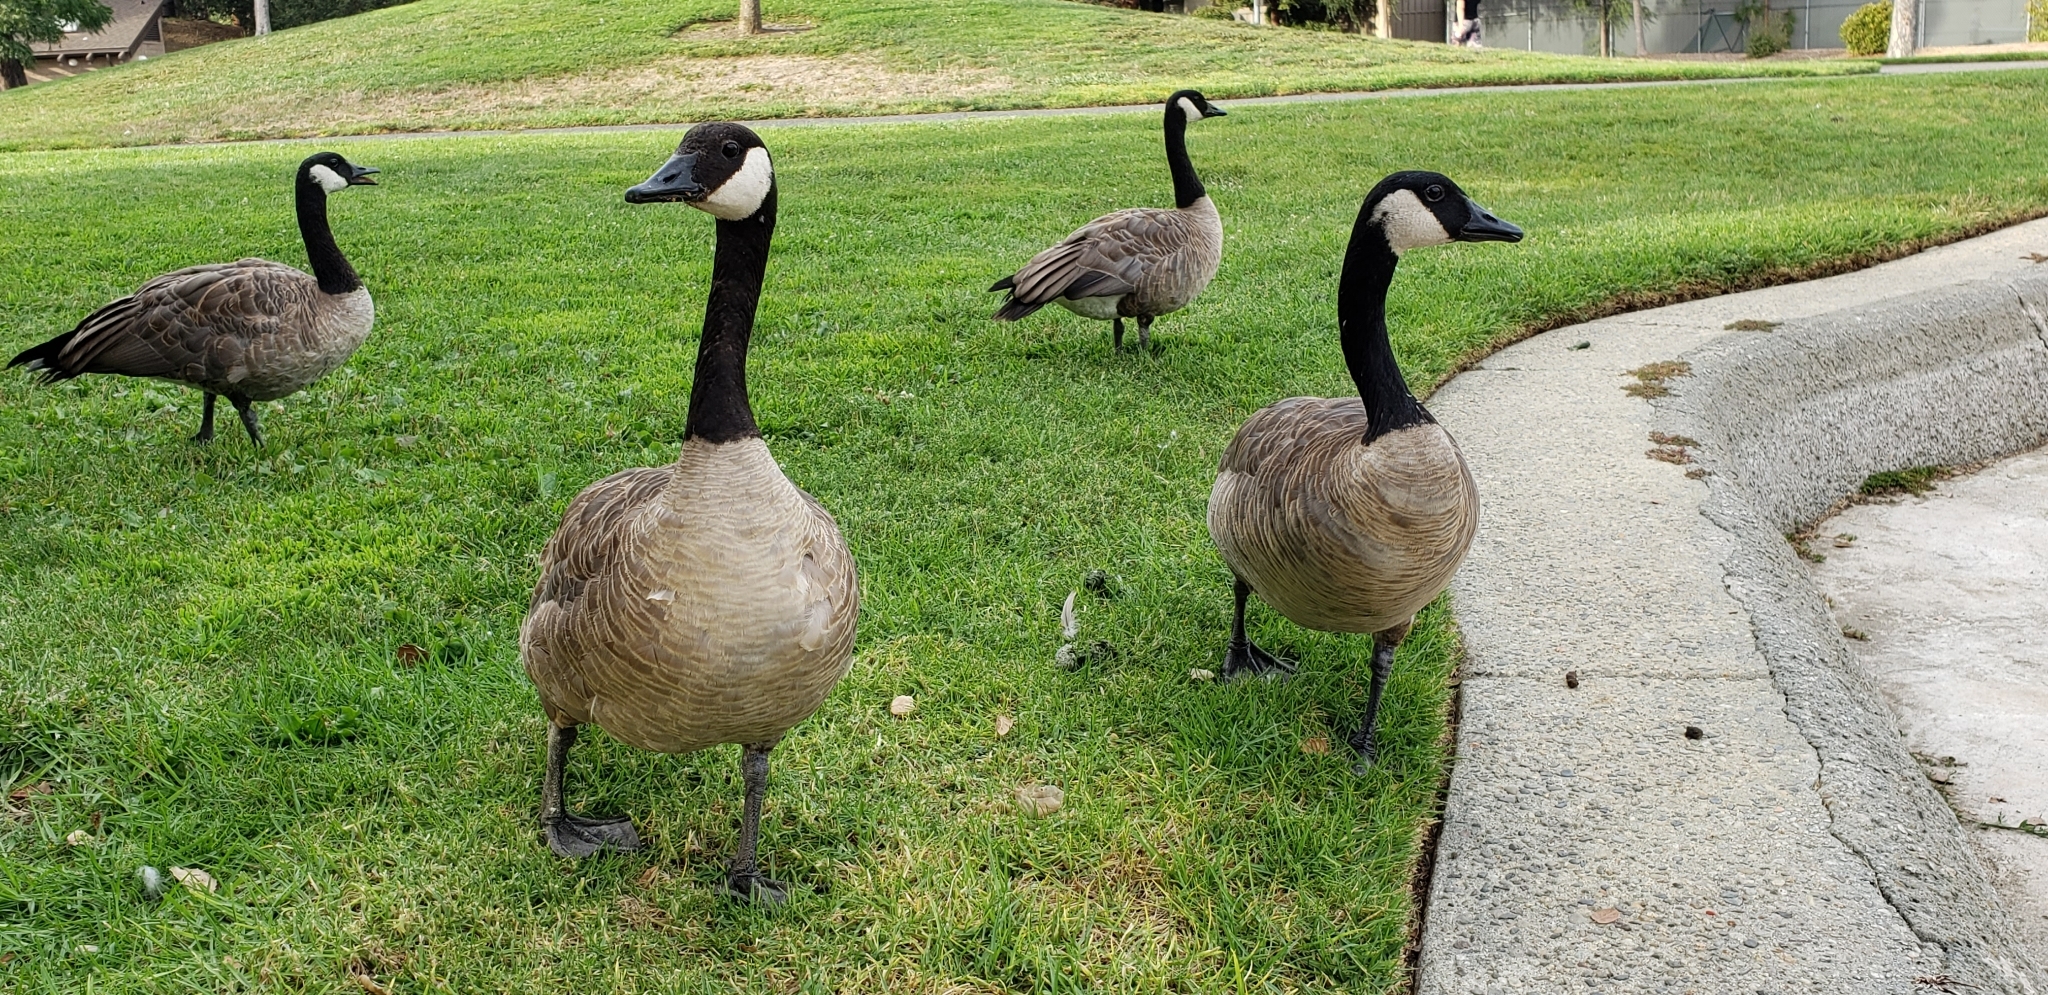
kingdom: Animalia
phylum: Chordata
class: Aves
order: Anseriformes
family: Anatidae
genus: Branta
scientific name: Branta canadensis
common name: Canada goose
